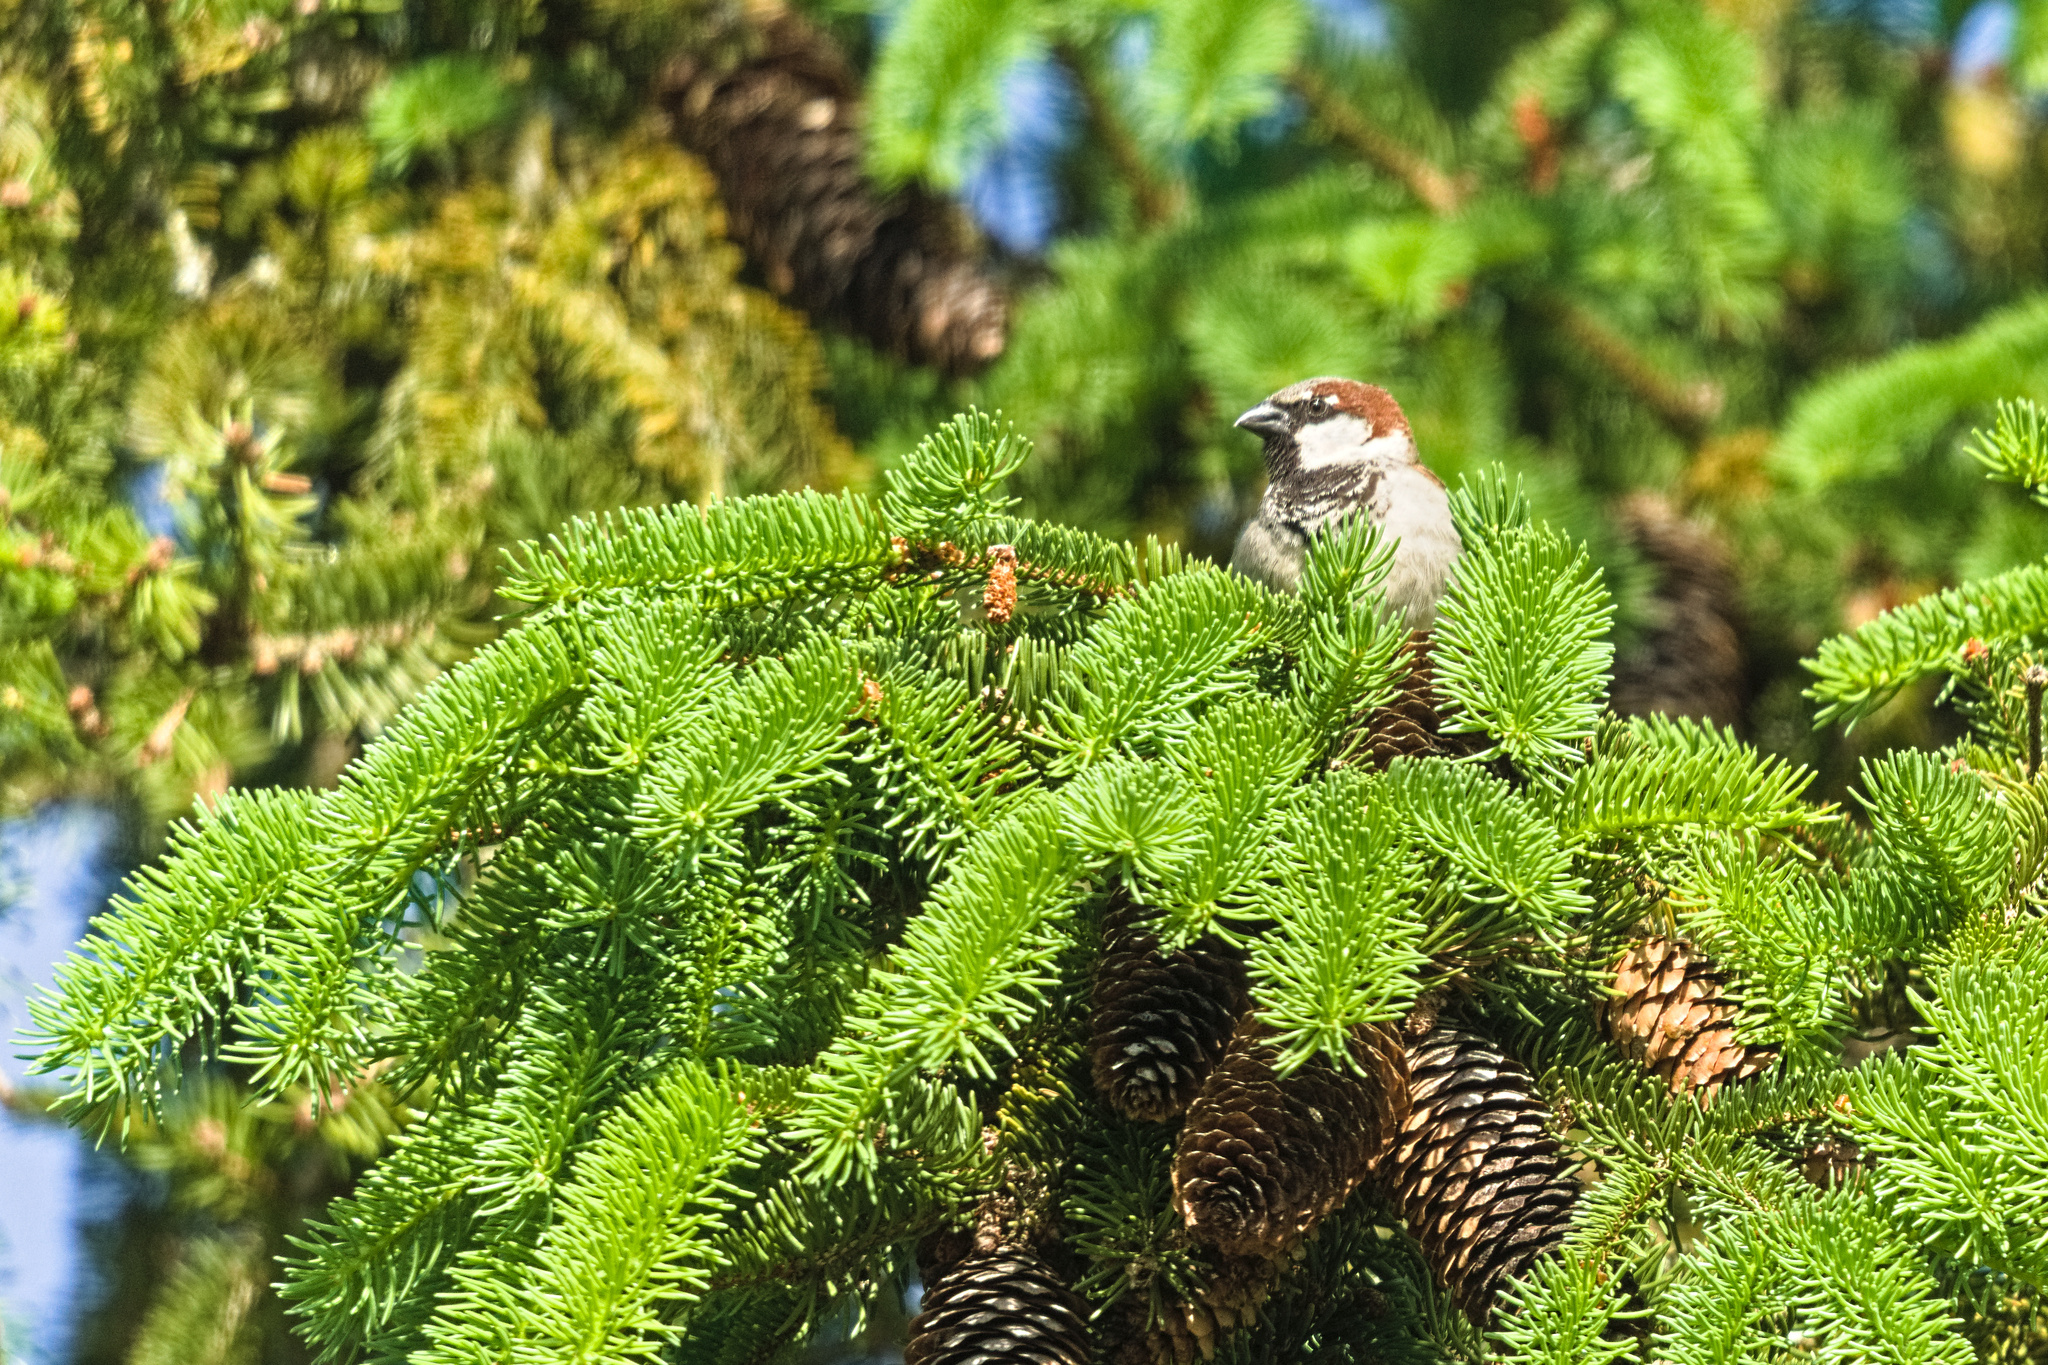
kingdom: Animalia
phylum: Chordata
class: Aves
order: Passeriformes
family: Passeridae
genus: Passer
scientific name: Passer domesticus
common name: House sparrow
